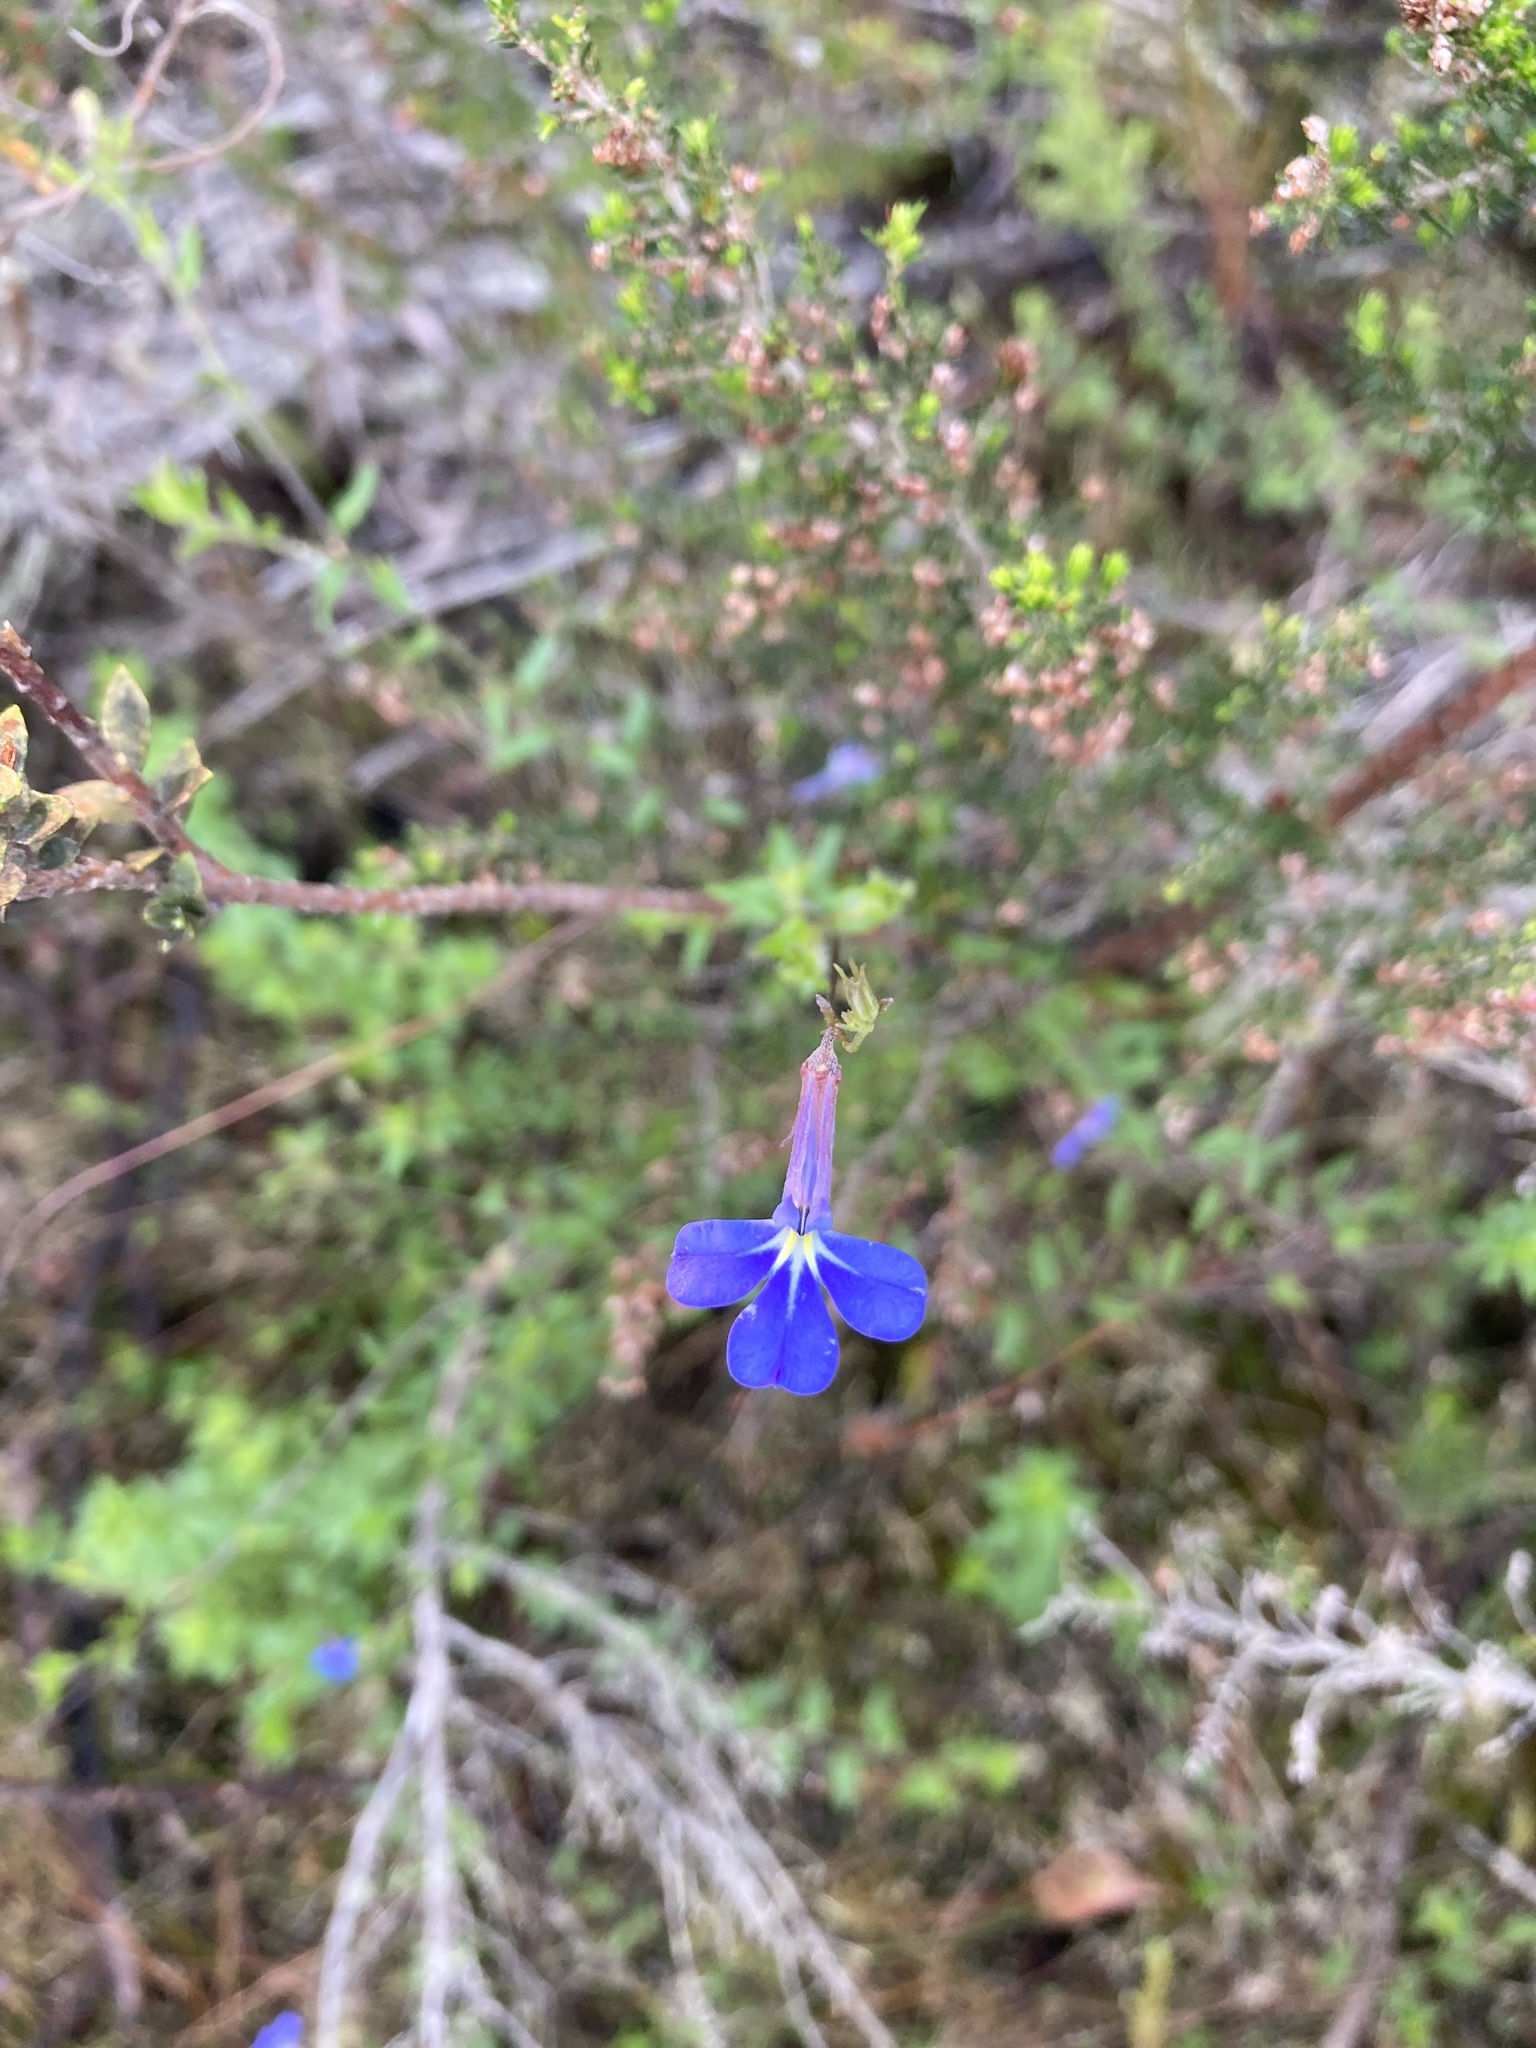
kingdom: Plantae
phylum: Tracheophyta
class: Magnoliopsida
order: Asterales
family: Campanulaceae
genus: Lobelia
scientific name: Lobelia neglecta
